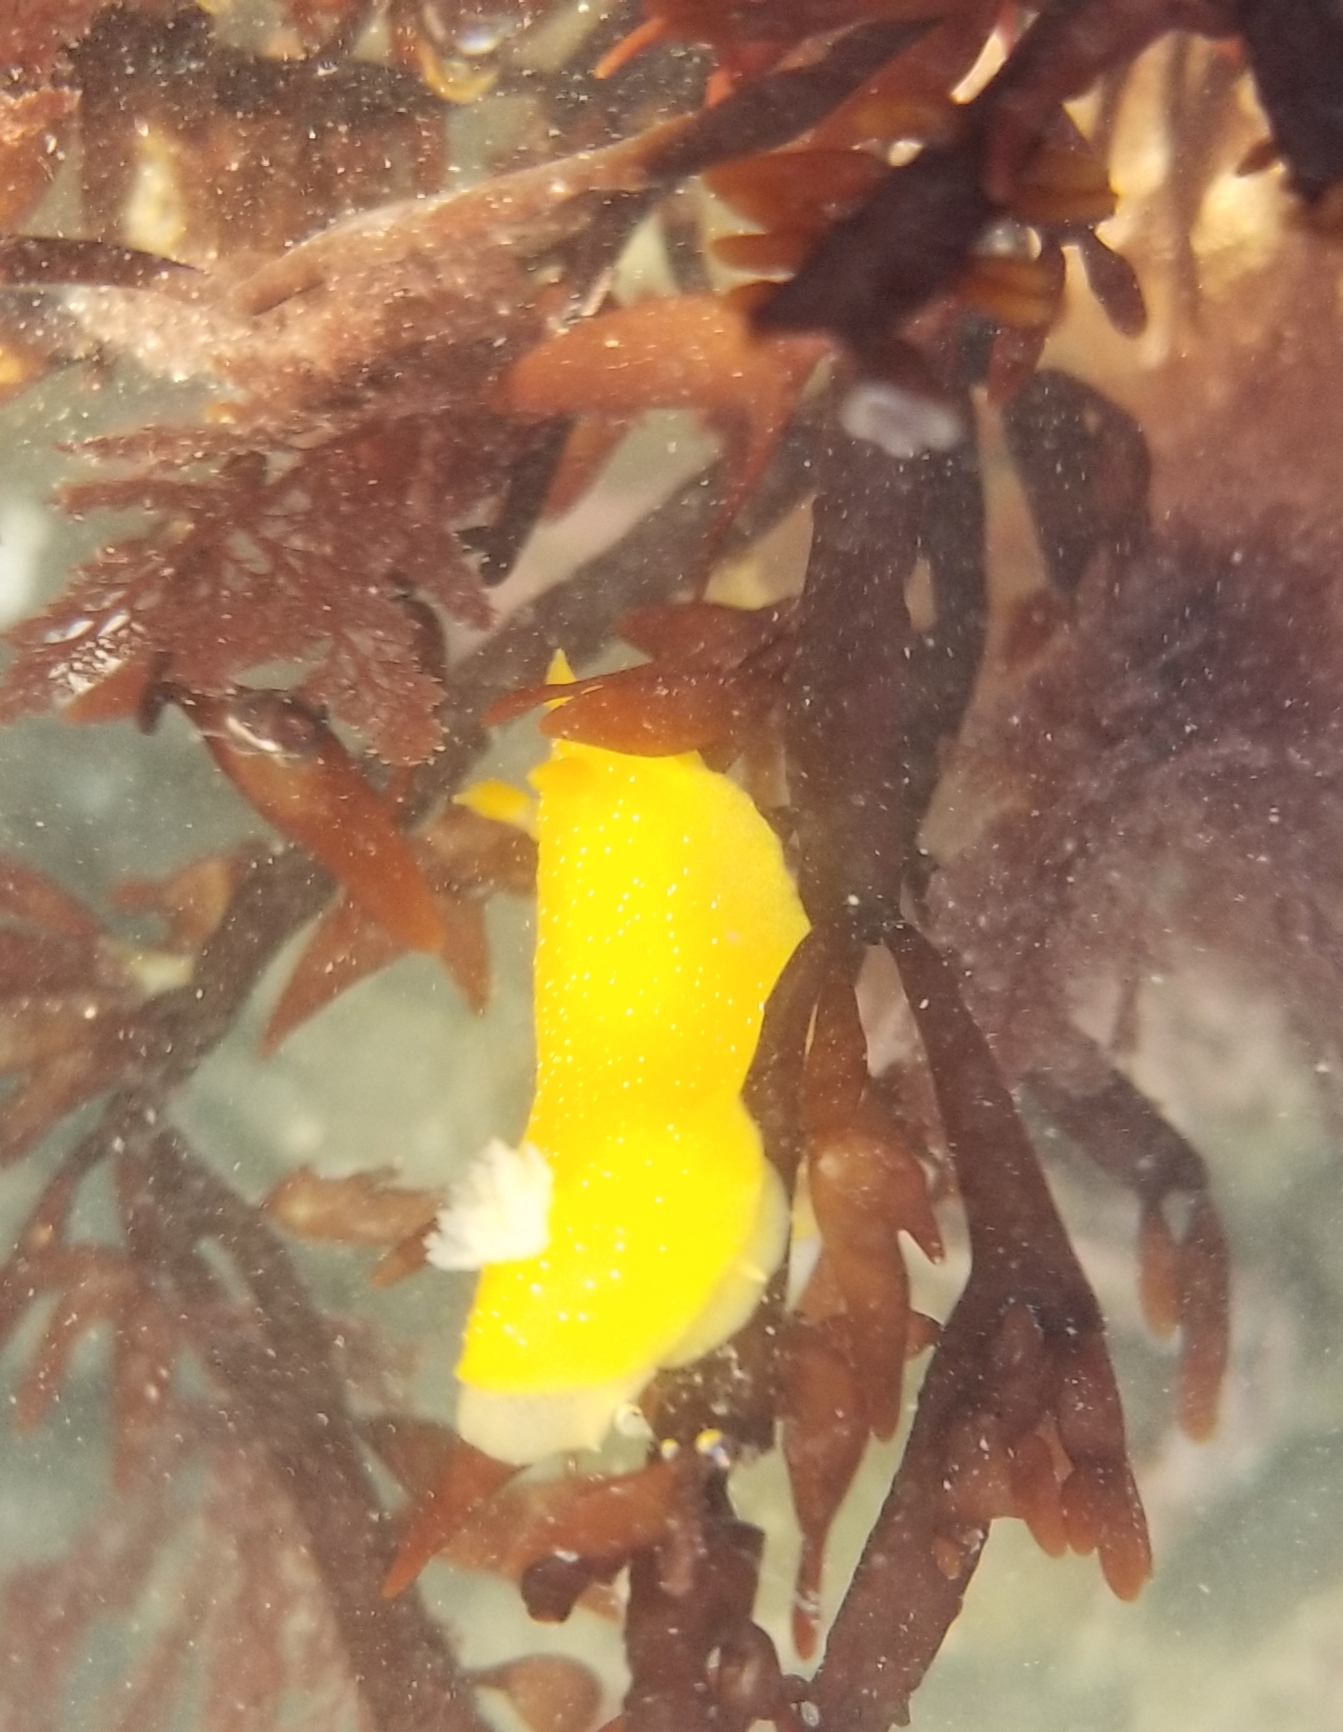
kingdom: Animalia
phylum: Mollusca
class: Gastropoda
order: Nudibranchia
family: Dendrodorididae
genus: Doriopsilla
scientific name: Doriopsilla fulva
